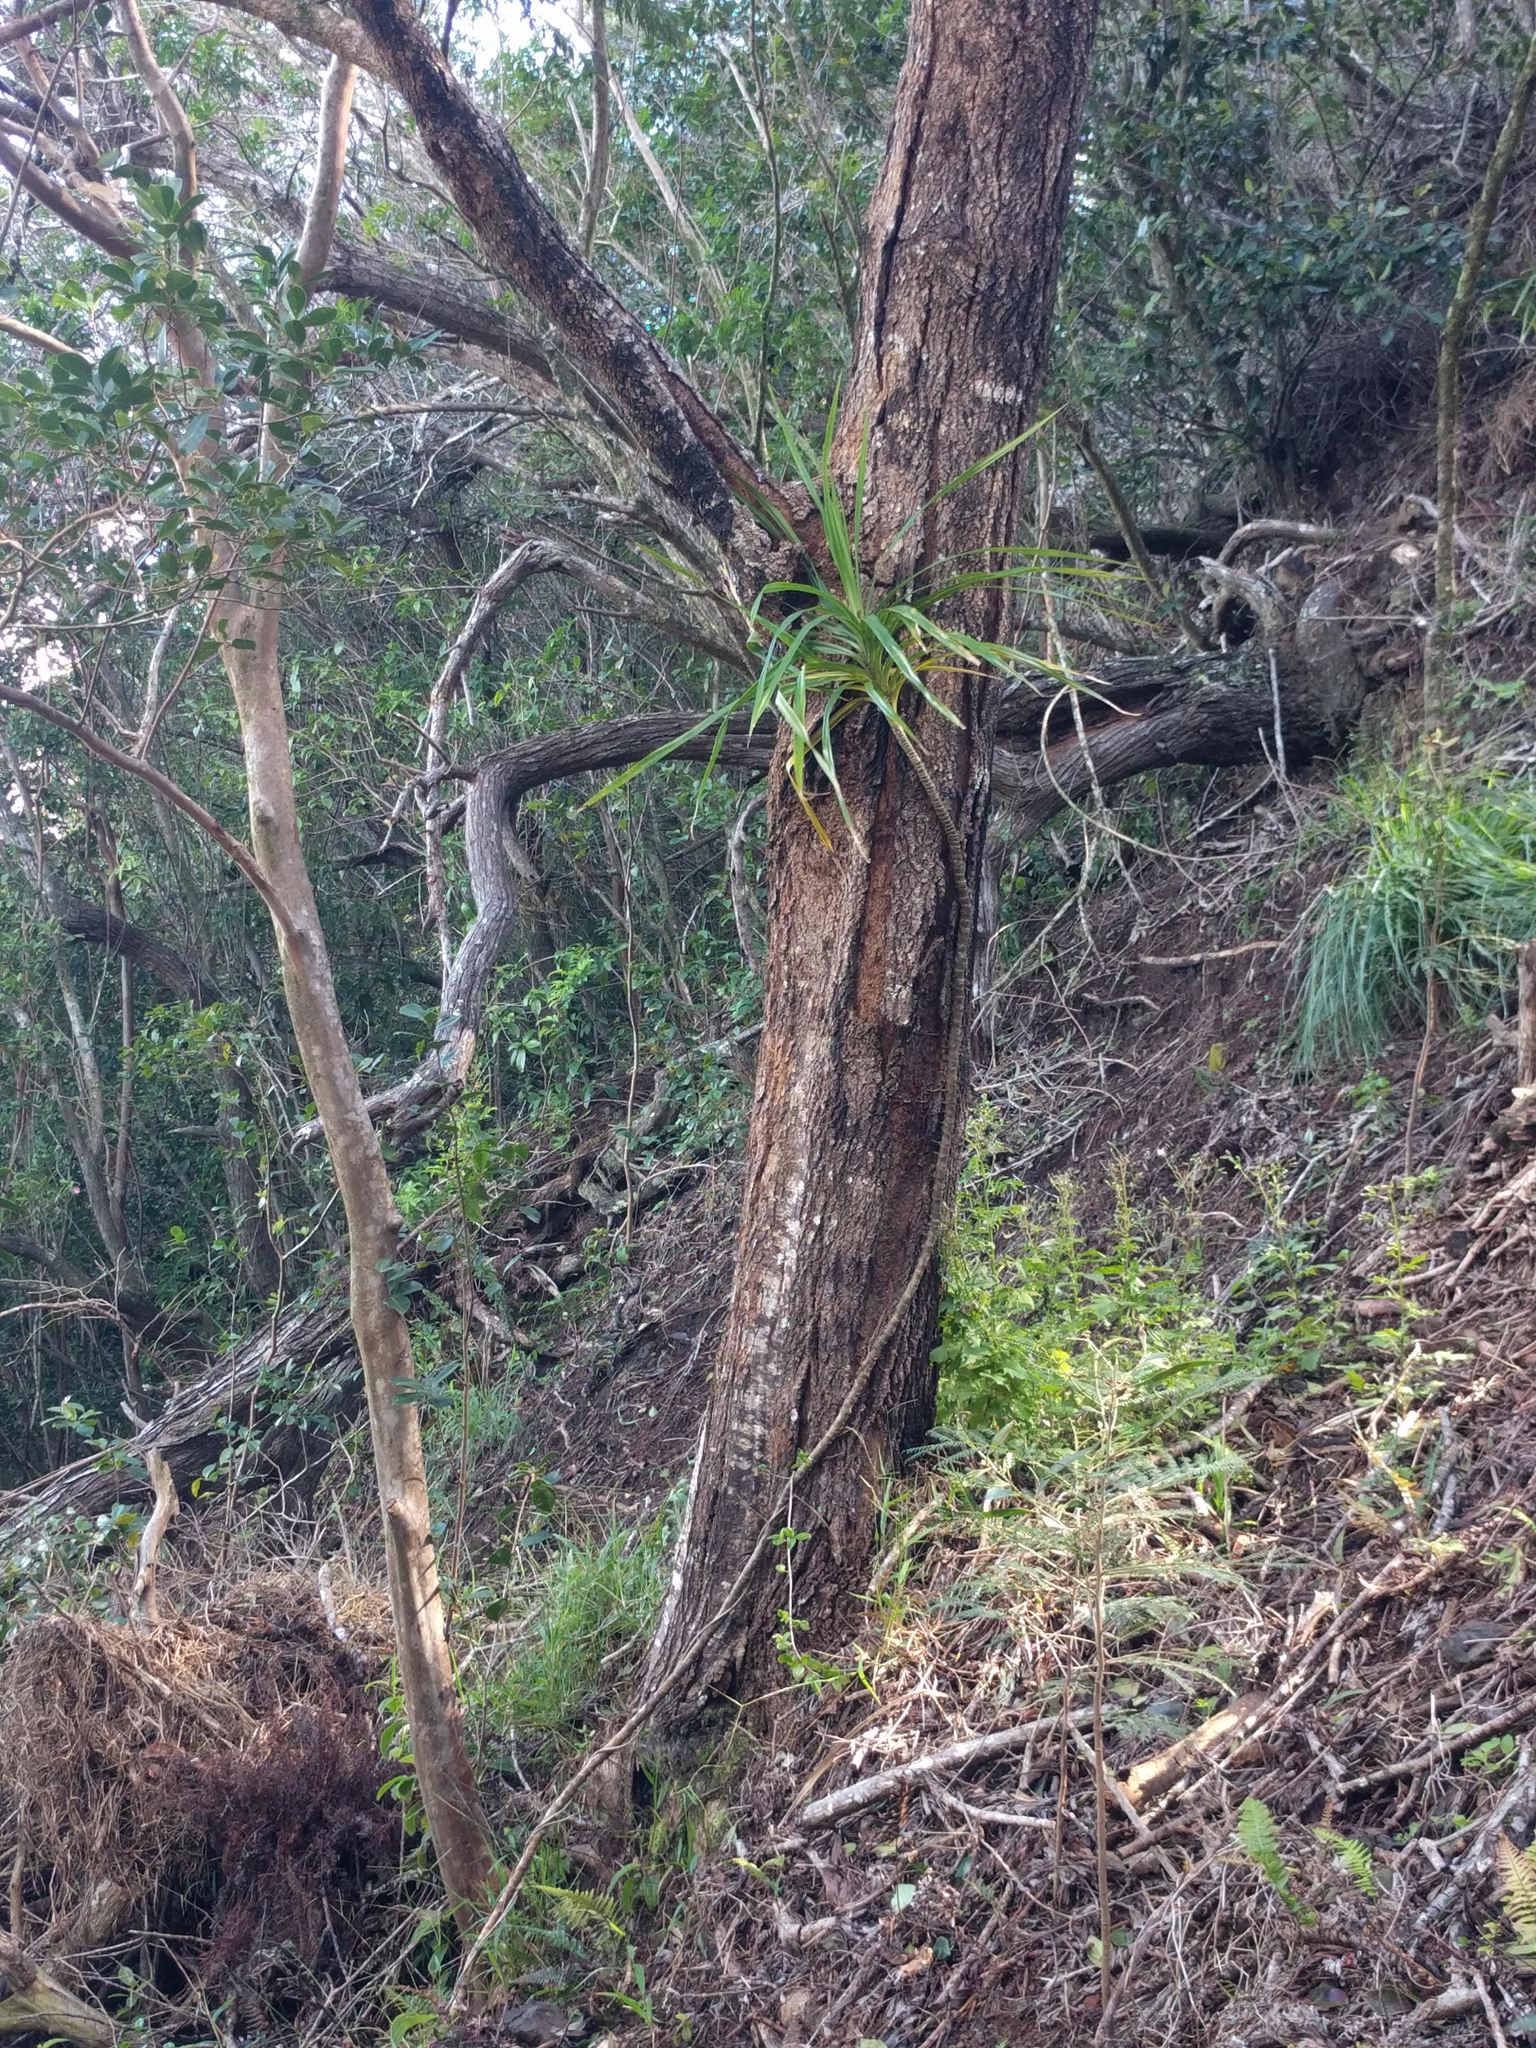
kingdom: Plantae
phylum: Tracheophyta
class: Liliopsida
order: Pandanales
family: Pandanaceae
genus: Freycinetia
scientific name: Freycinetia arborea
